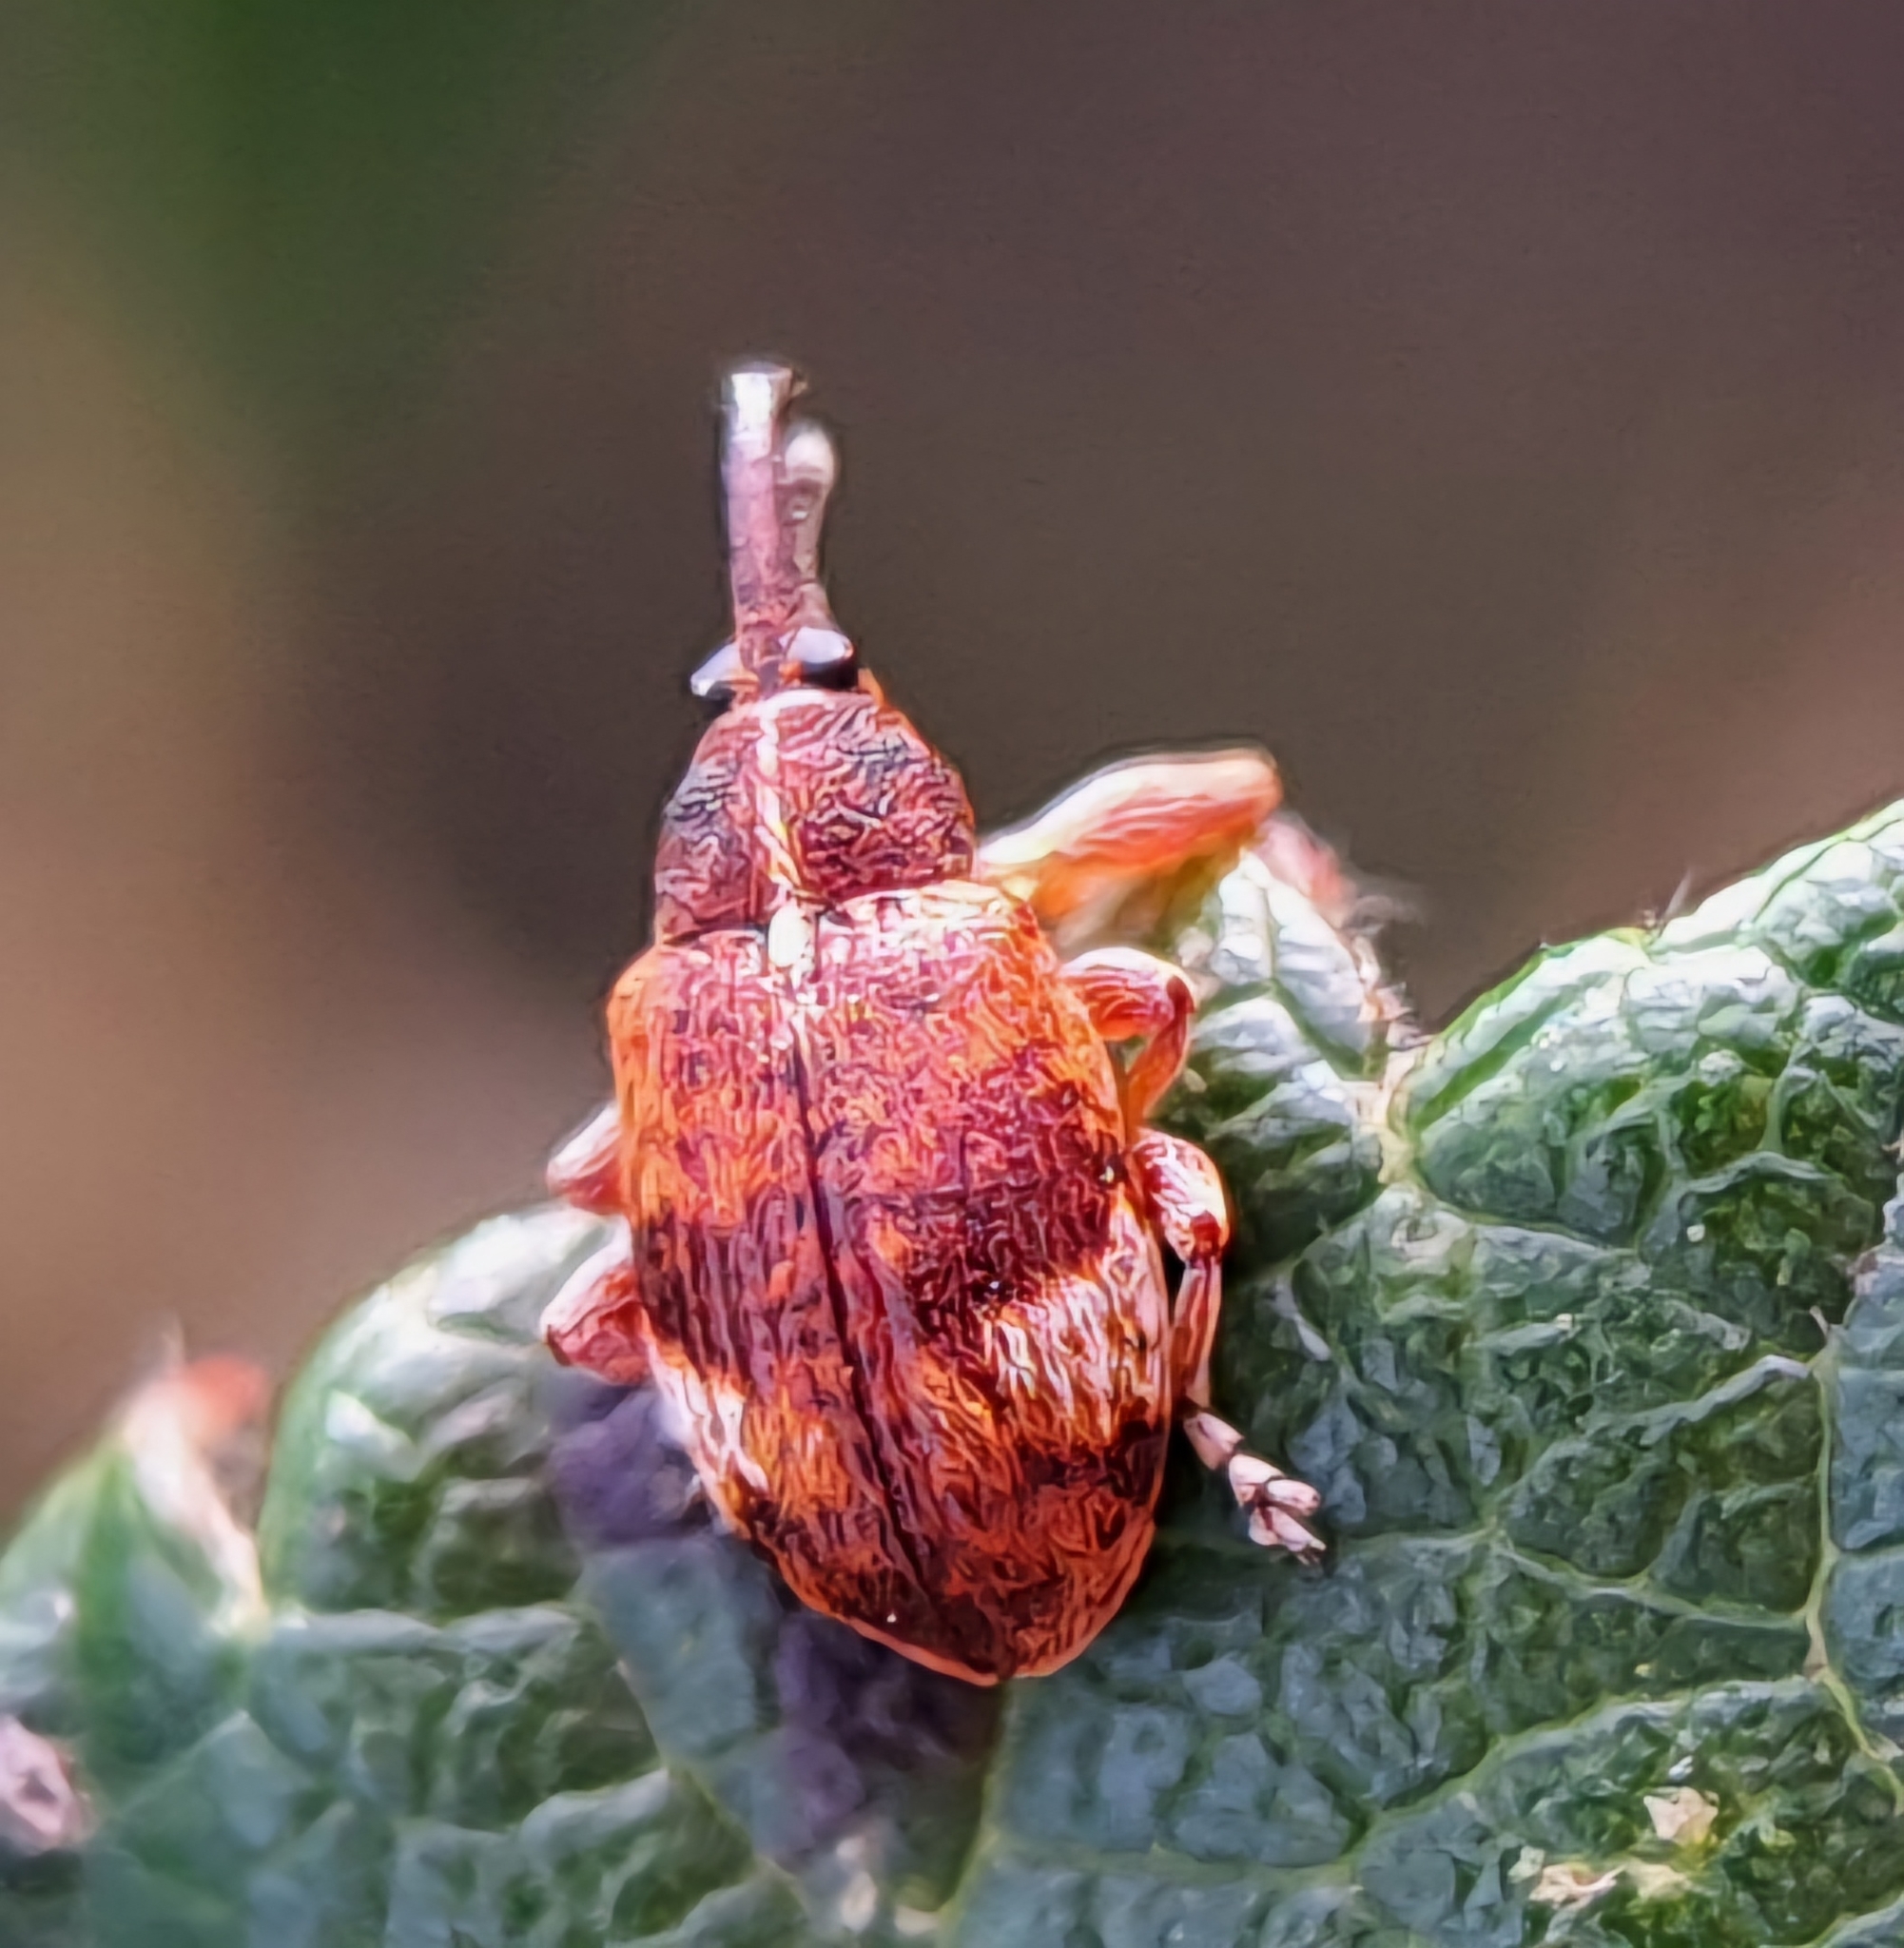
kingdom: Animalia
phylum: Arthropoda
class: Insecta
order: Coleoptera
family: Curculionidae
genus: Anthonomus
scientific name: Anthonomus pedicularius
